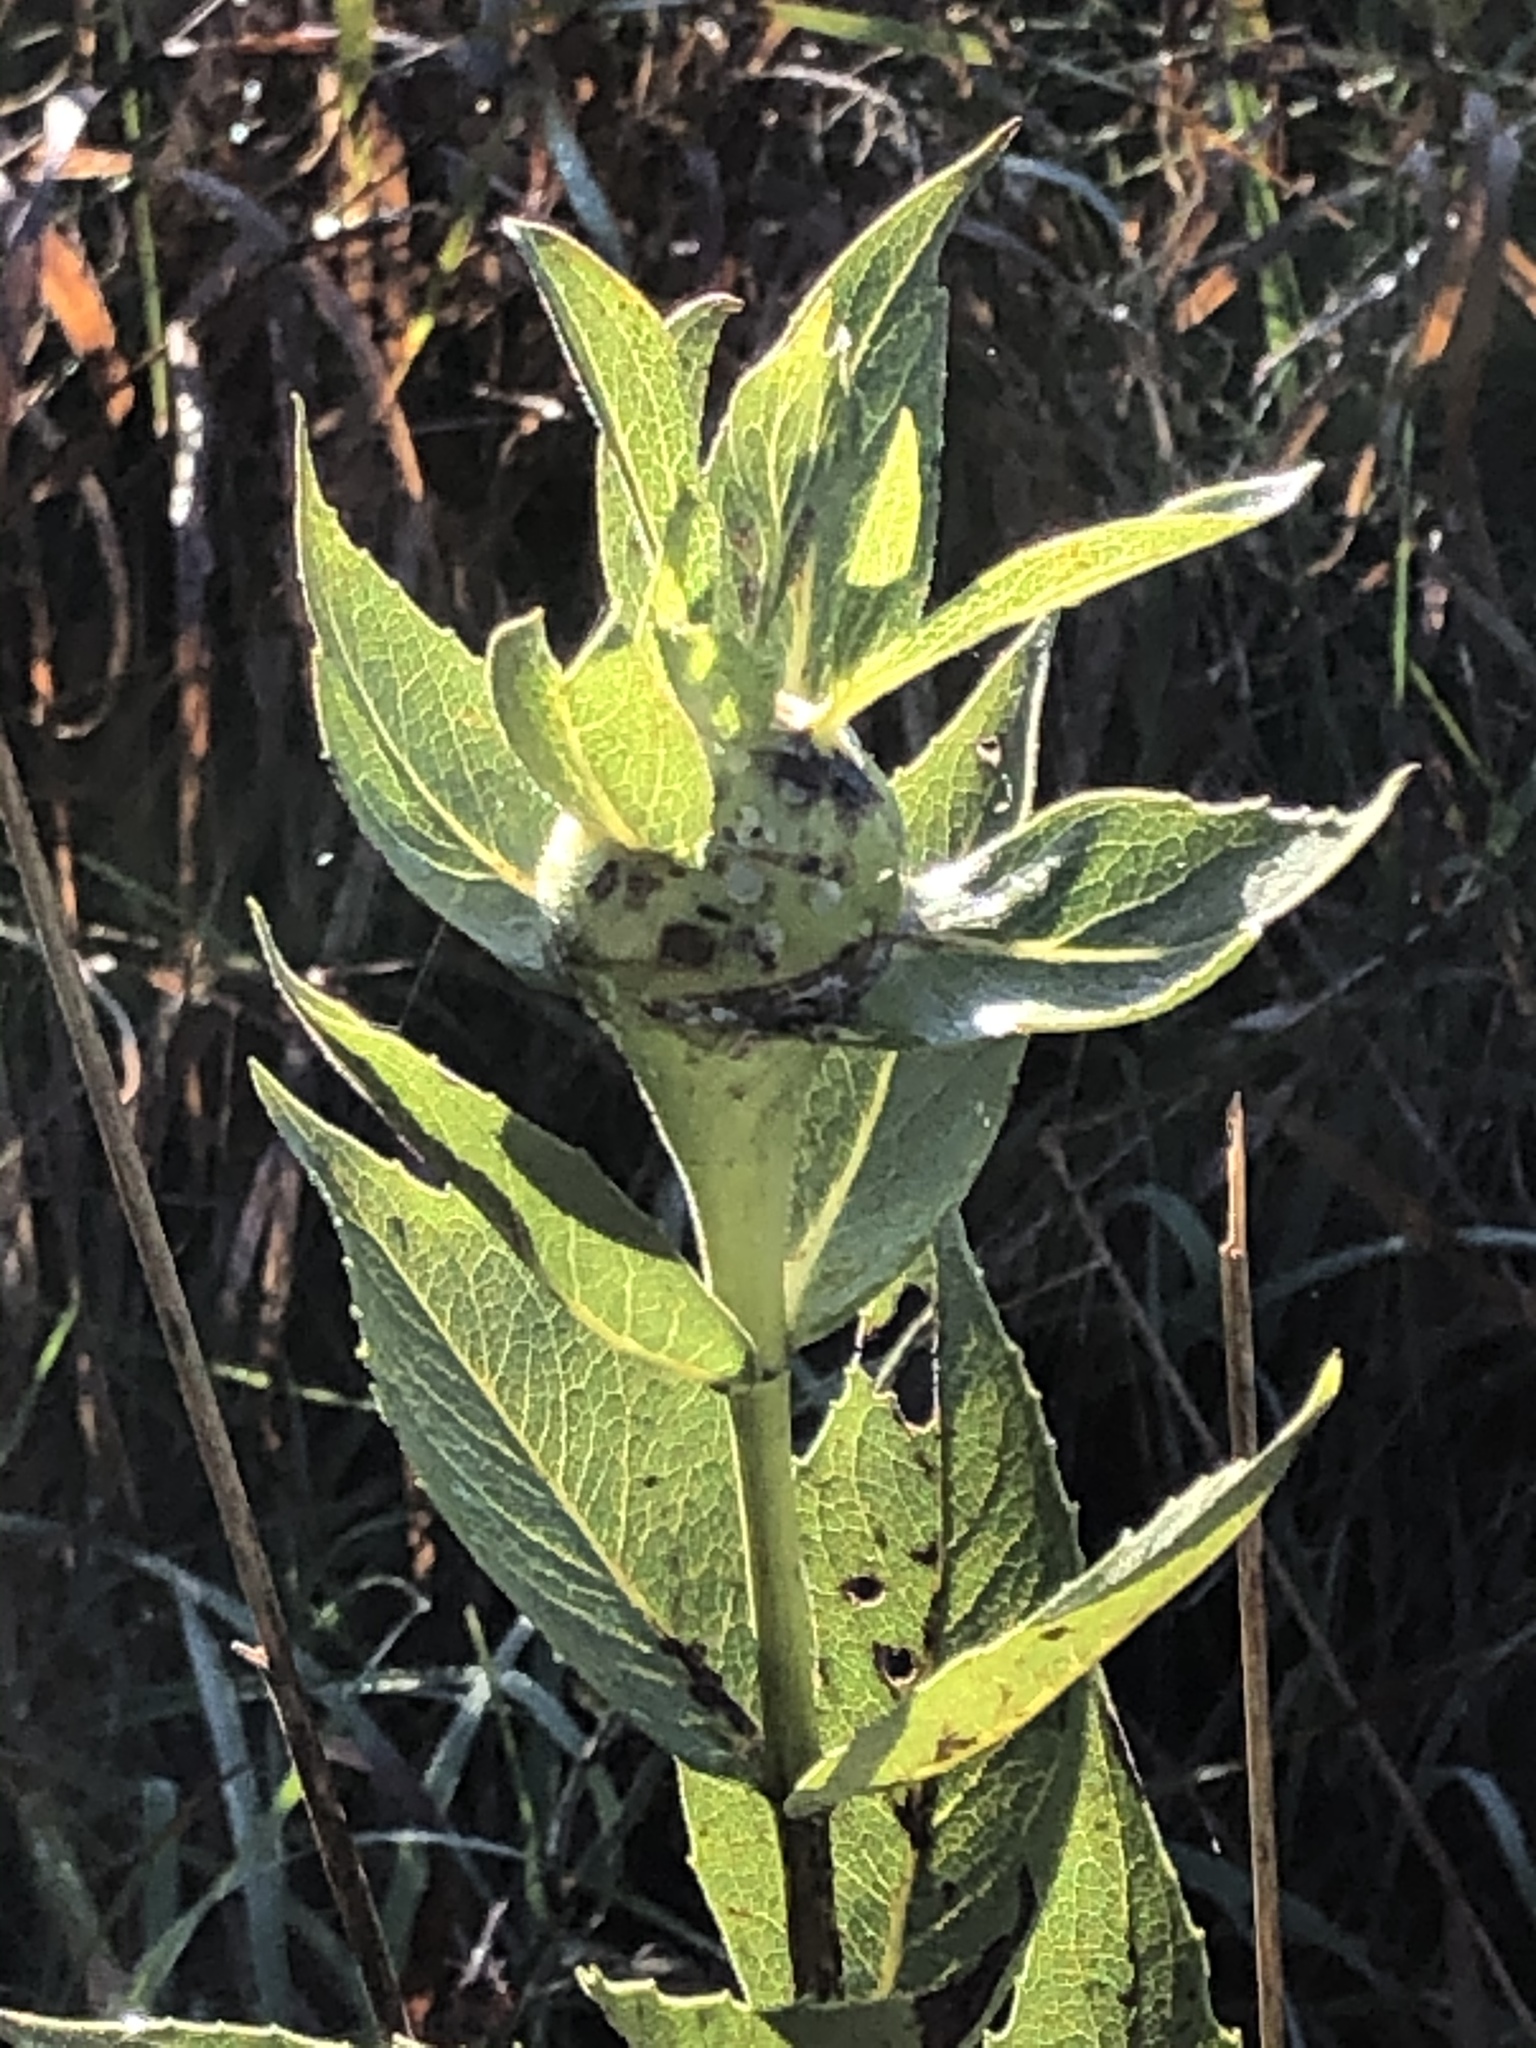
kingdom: Plantae
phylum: Tracheophyta
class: Magnoliopsida
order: Asterales
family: Asteraceae
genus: Silphium
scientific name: Silphium integrifolium
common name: Whole-leaf rosinweed
